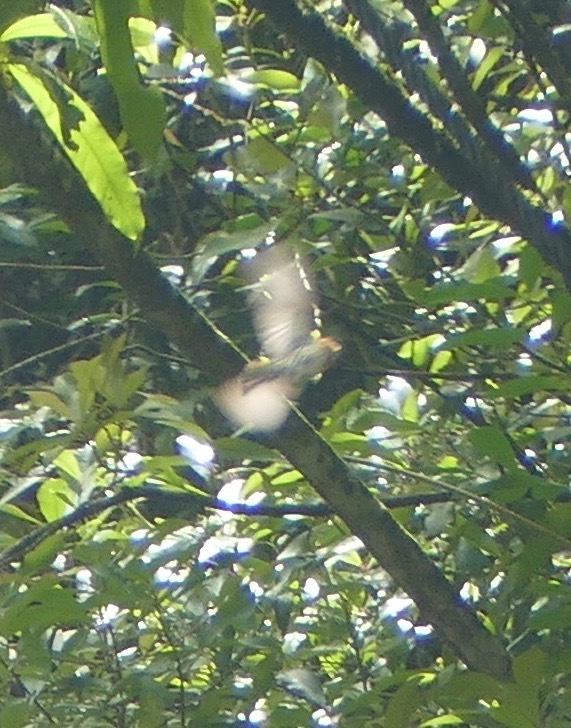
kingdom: Animalia
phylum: Chordata
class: Aves
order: Passeriformes
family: Fringillidae
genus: Haemorhous
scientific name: Haemorhous mexicanus
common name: House finch
